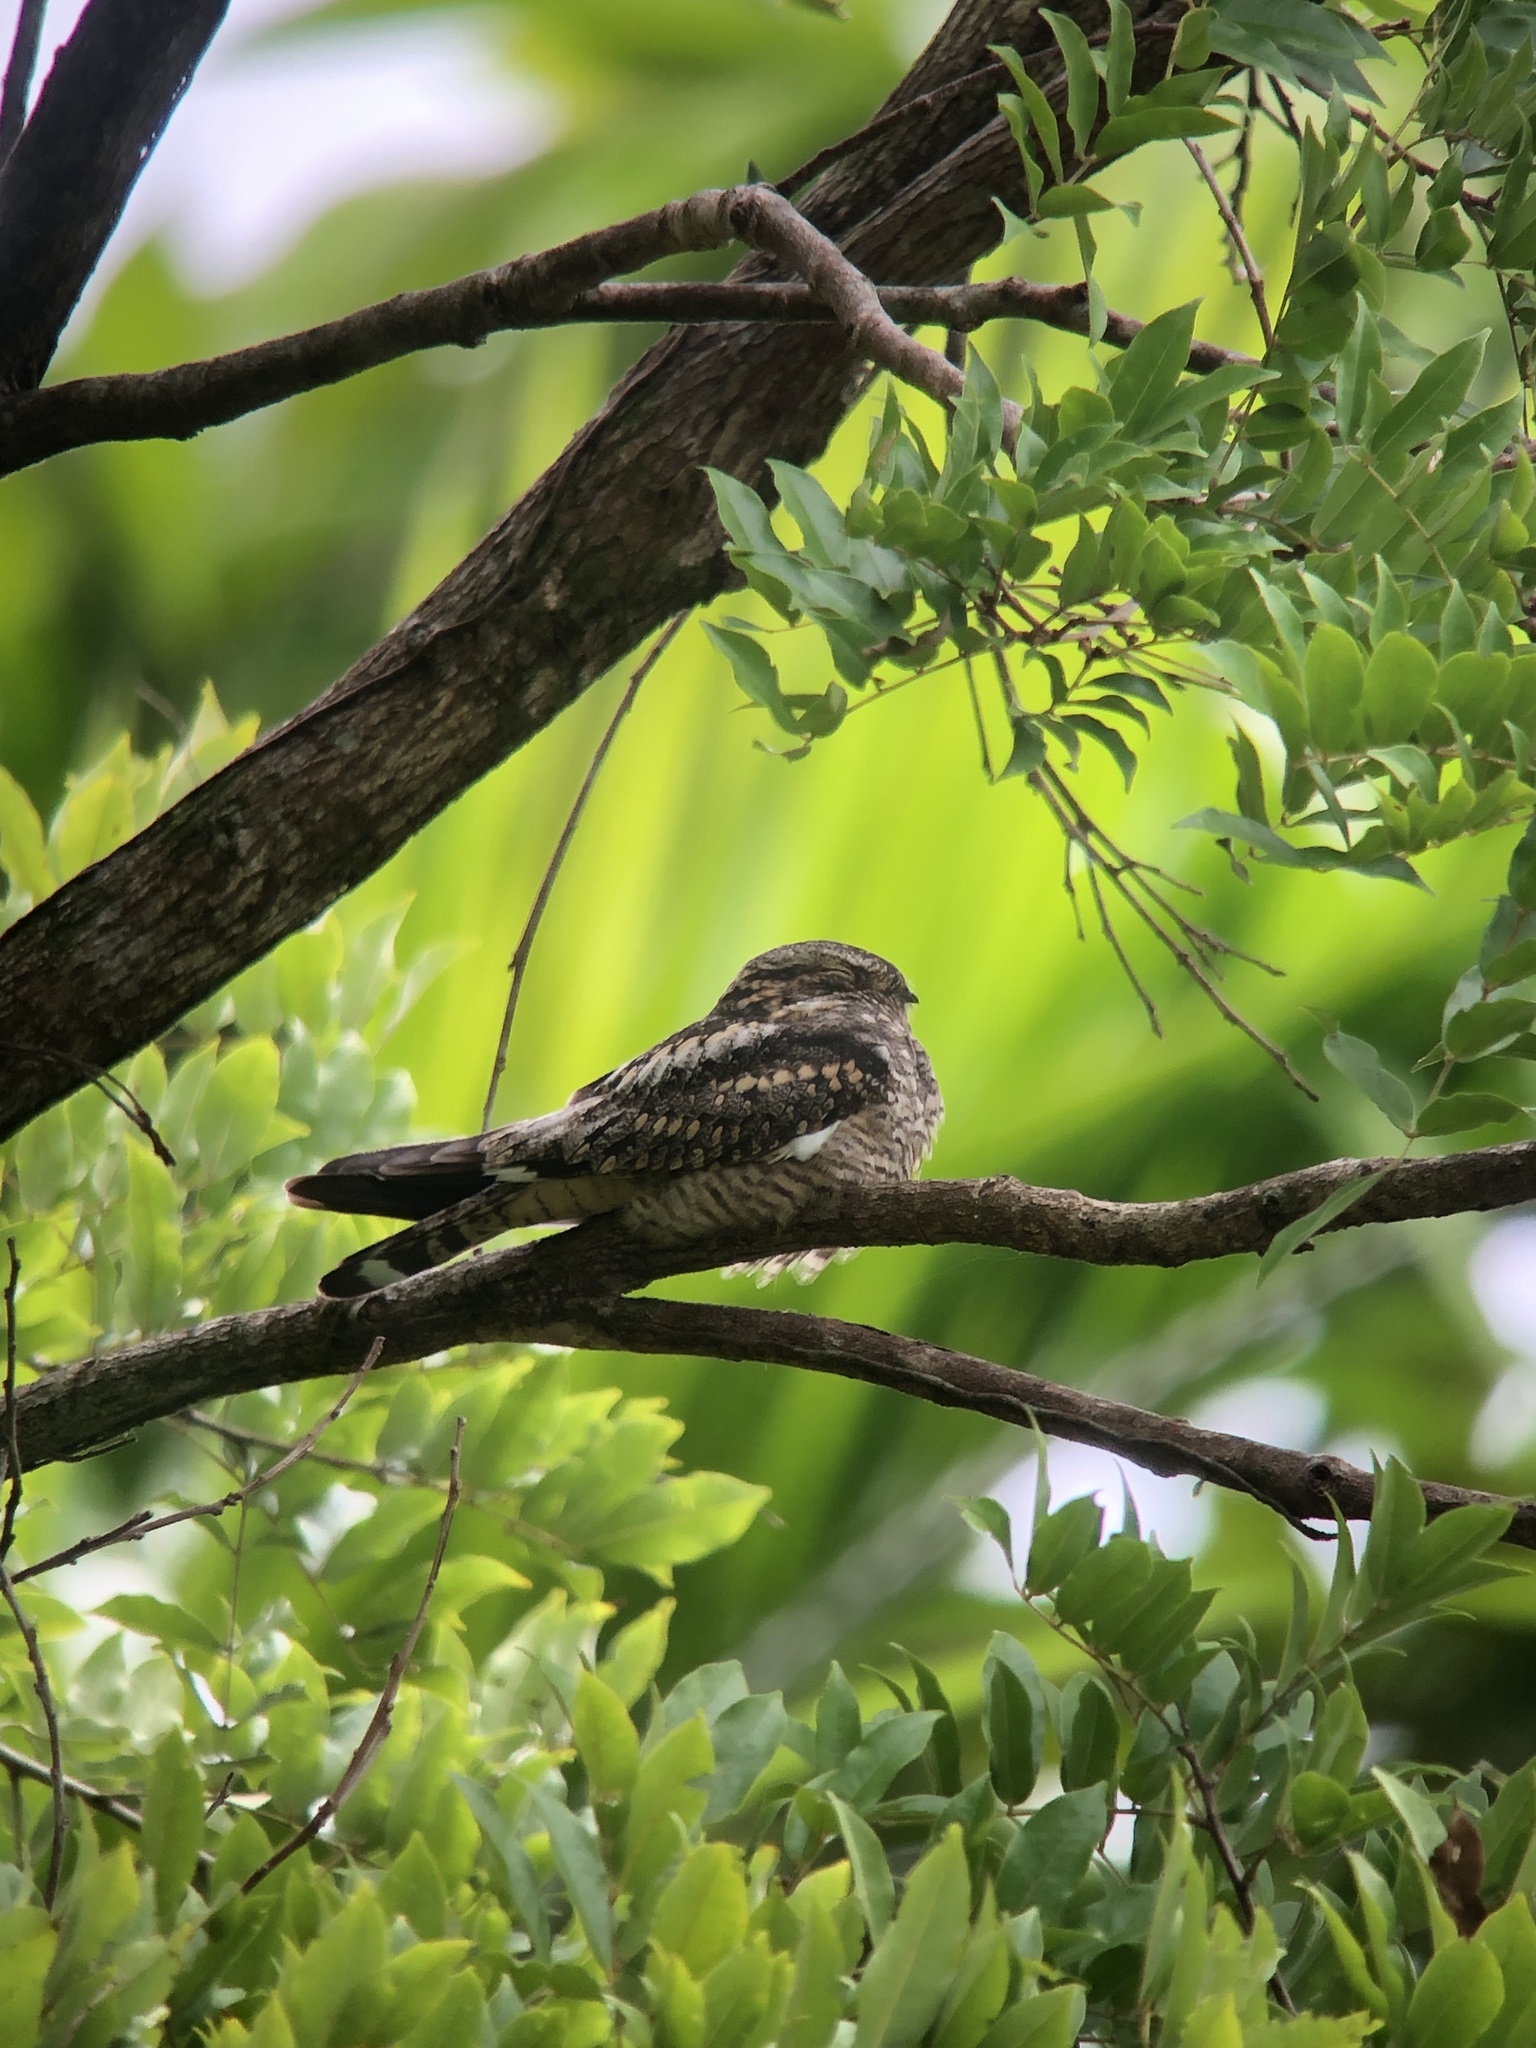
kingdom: Animalia
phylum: Chordata
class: Aves
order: Caprimulgiformes
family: Caprimulgidae
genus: Chordeiles
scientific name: Chordeiles minor
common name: Common nighthawk
